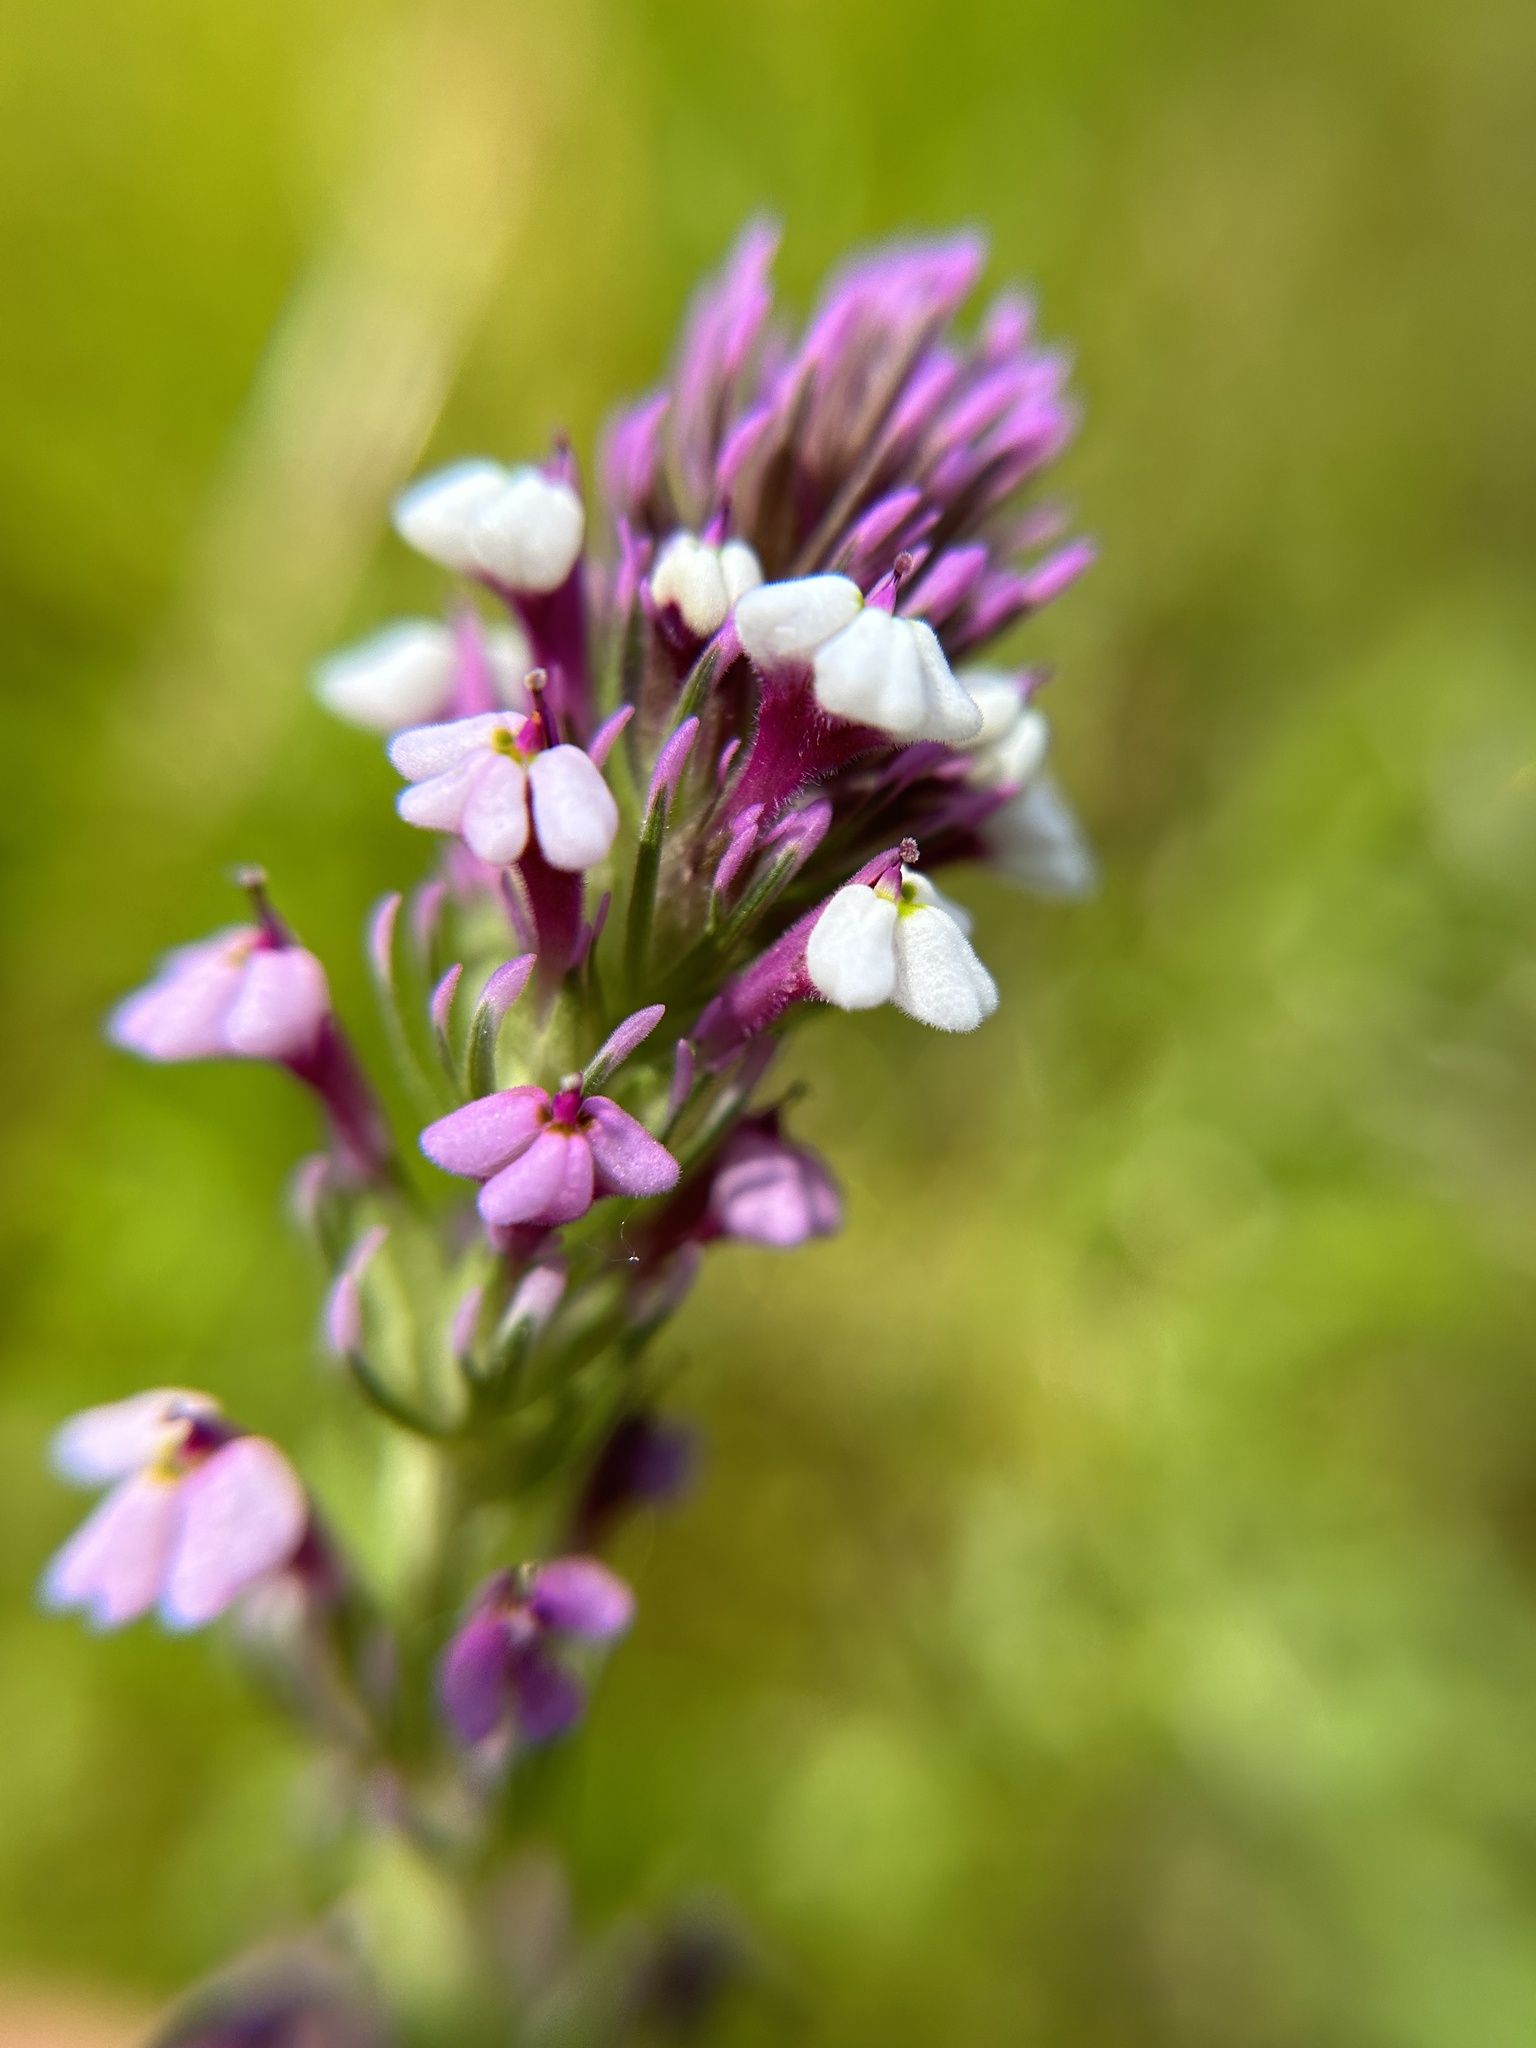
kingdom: Plantae
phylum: Tracheophyta
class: Magnoliopsida
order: Lamiales
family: Orobanchaceae
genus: Triphysaria
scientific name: Triphysaria eriantha
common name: Johnny-tuck
